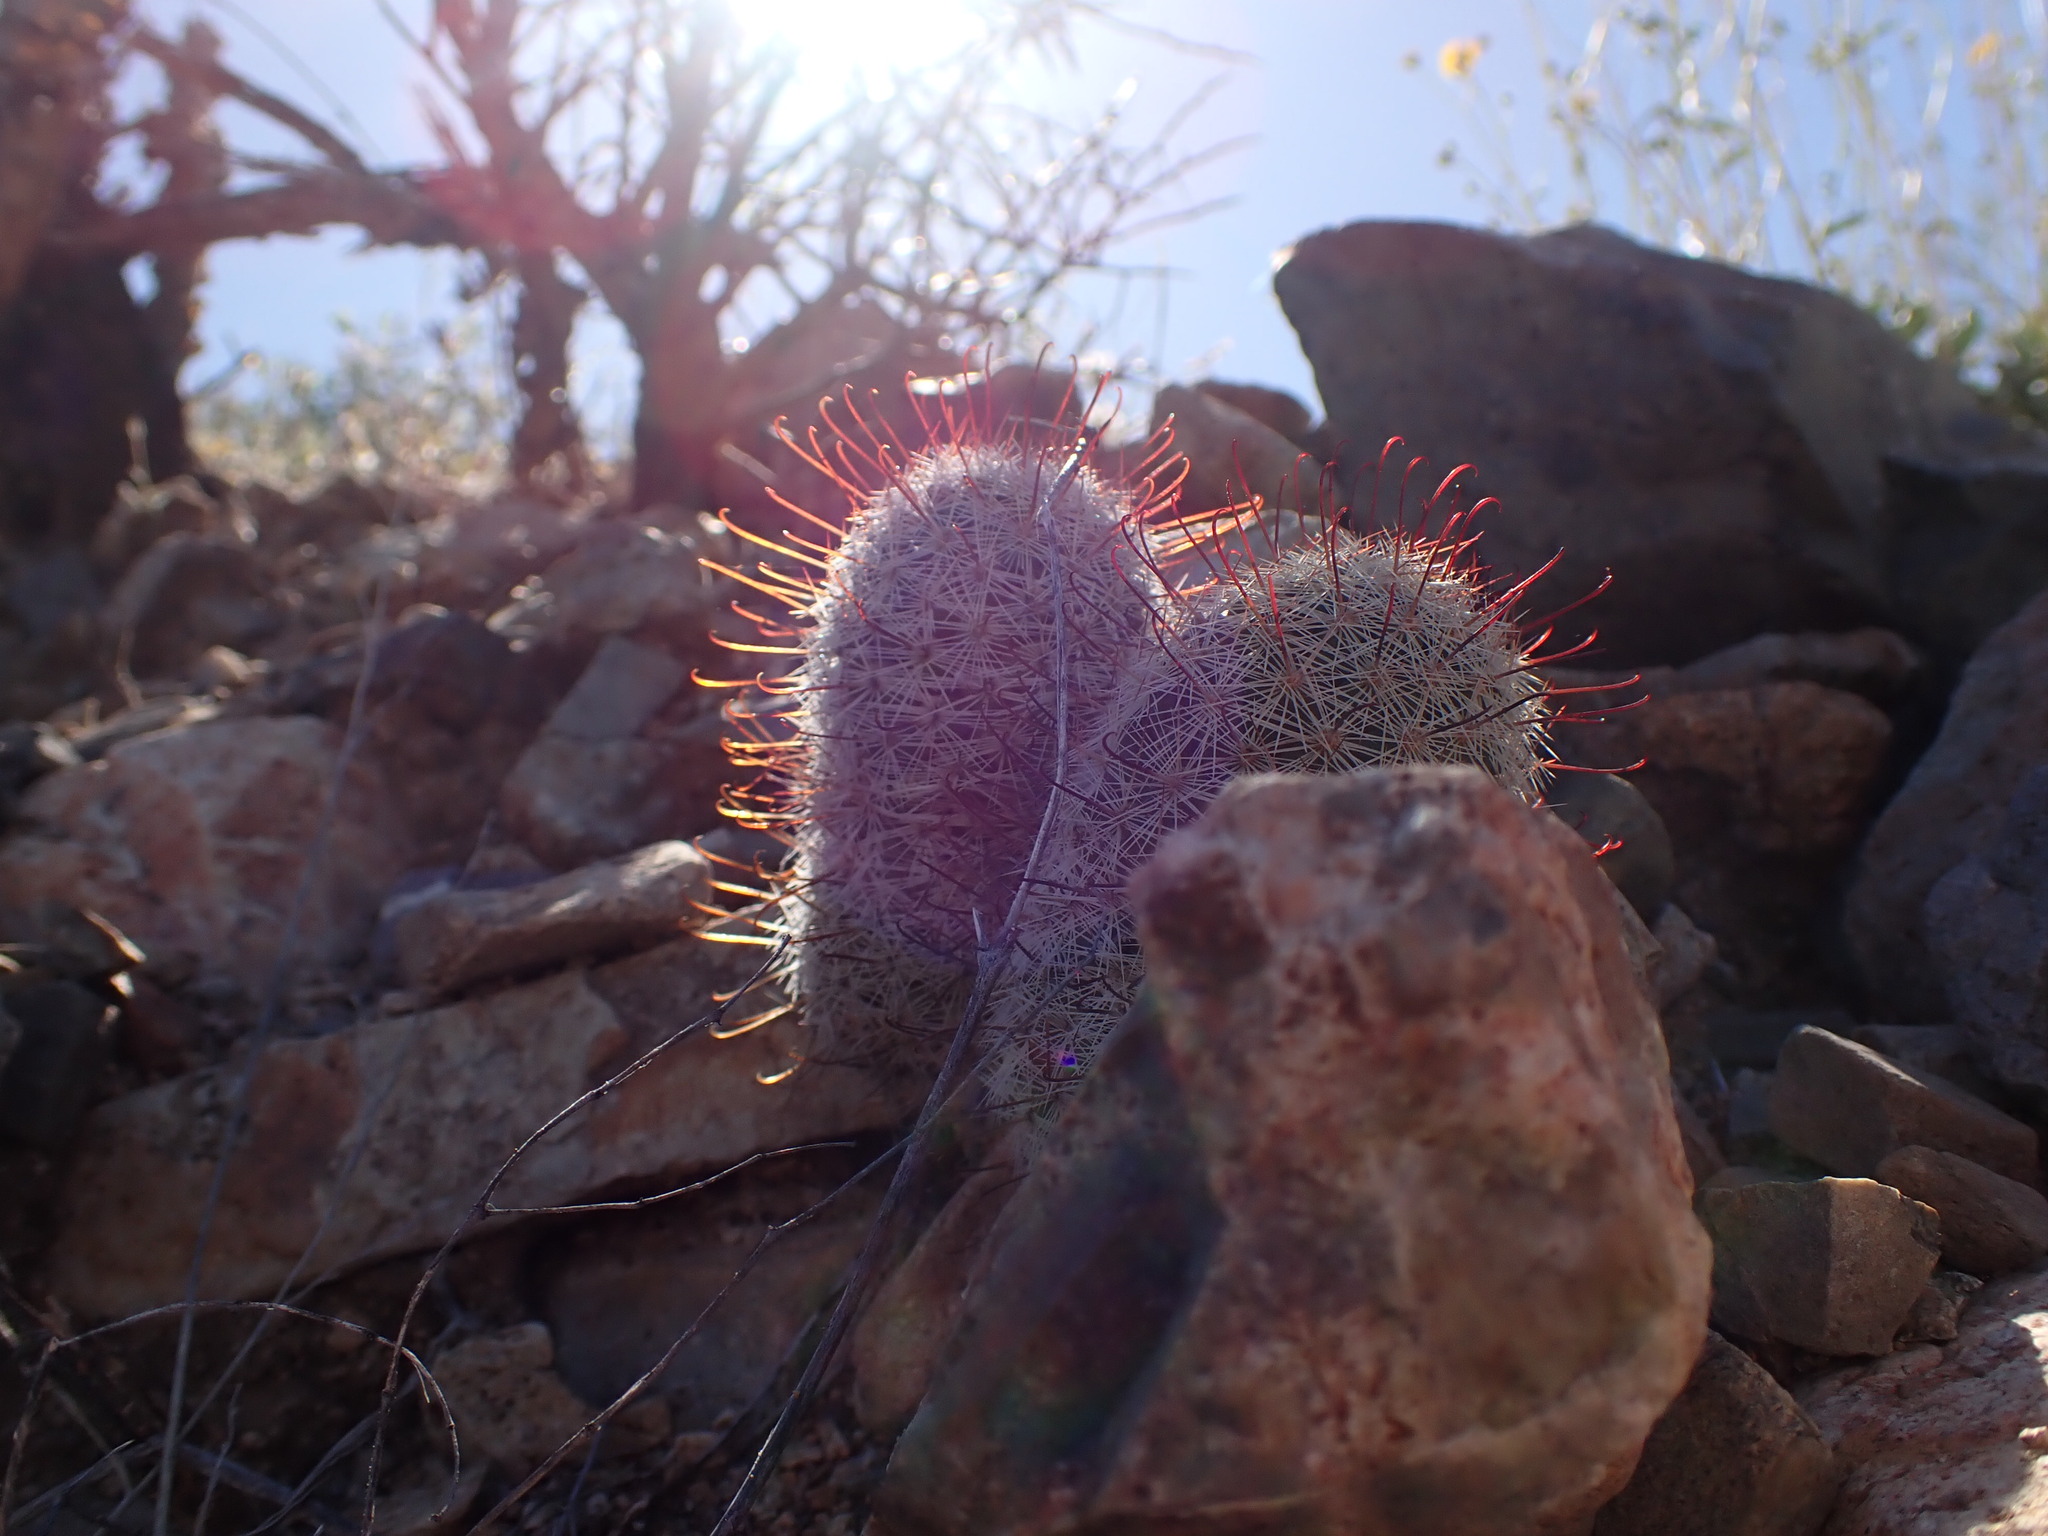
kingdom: Plantae
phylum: Tracheophyta
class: Magnoliopsida
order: Caryophyllales
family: Cactaceae
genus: Cochemiea
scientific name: Cochemiea grahamii
